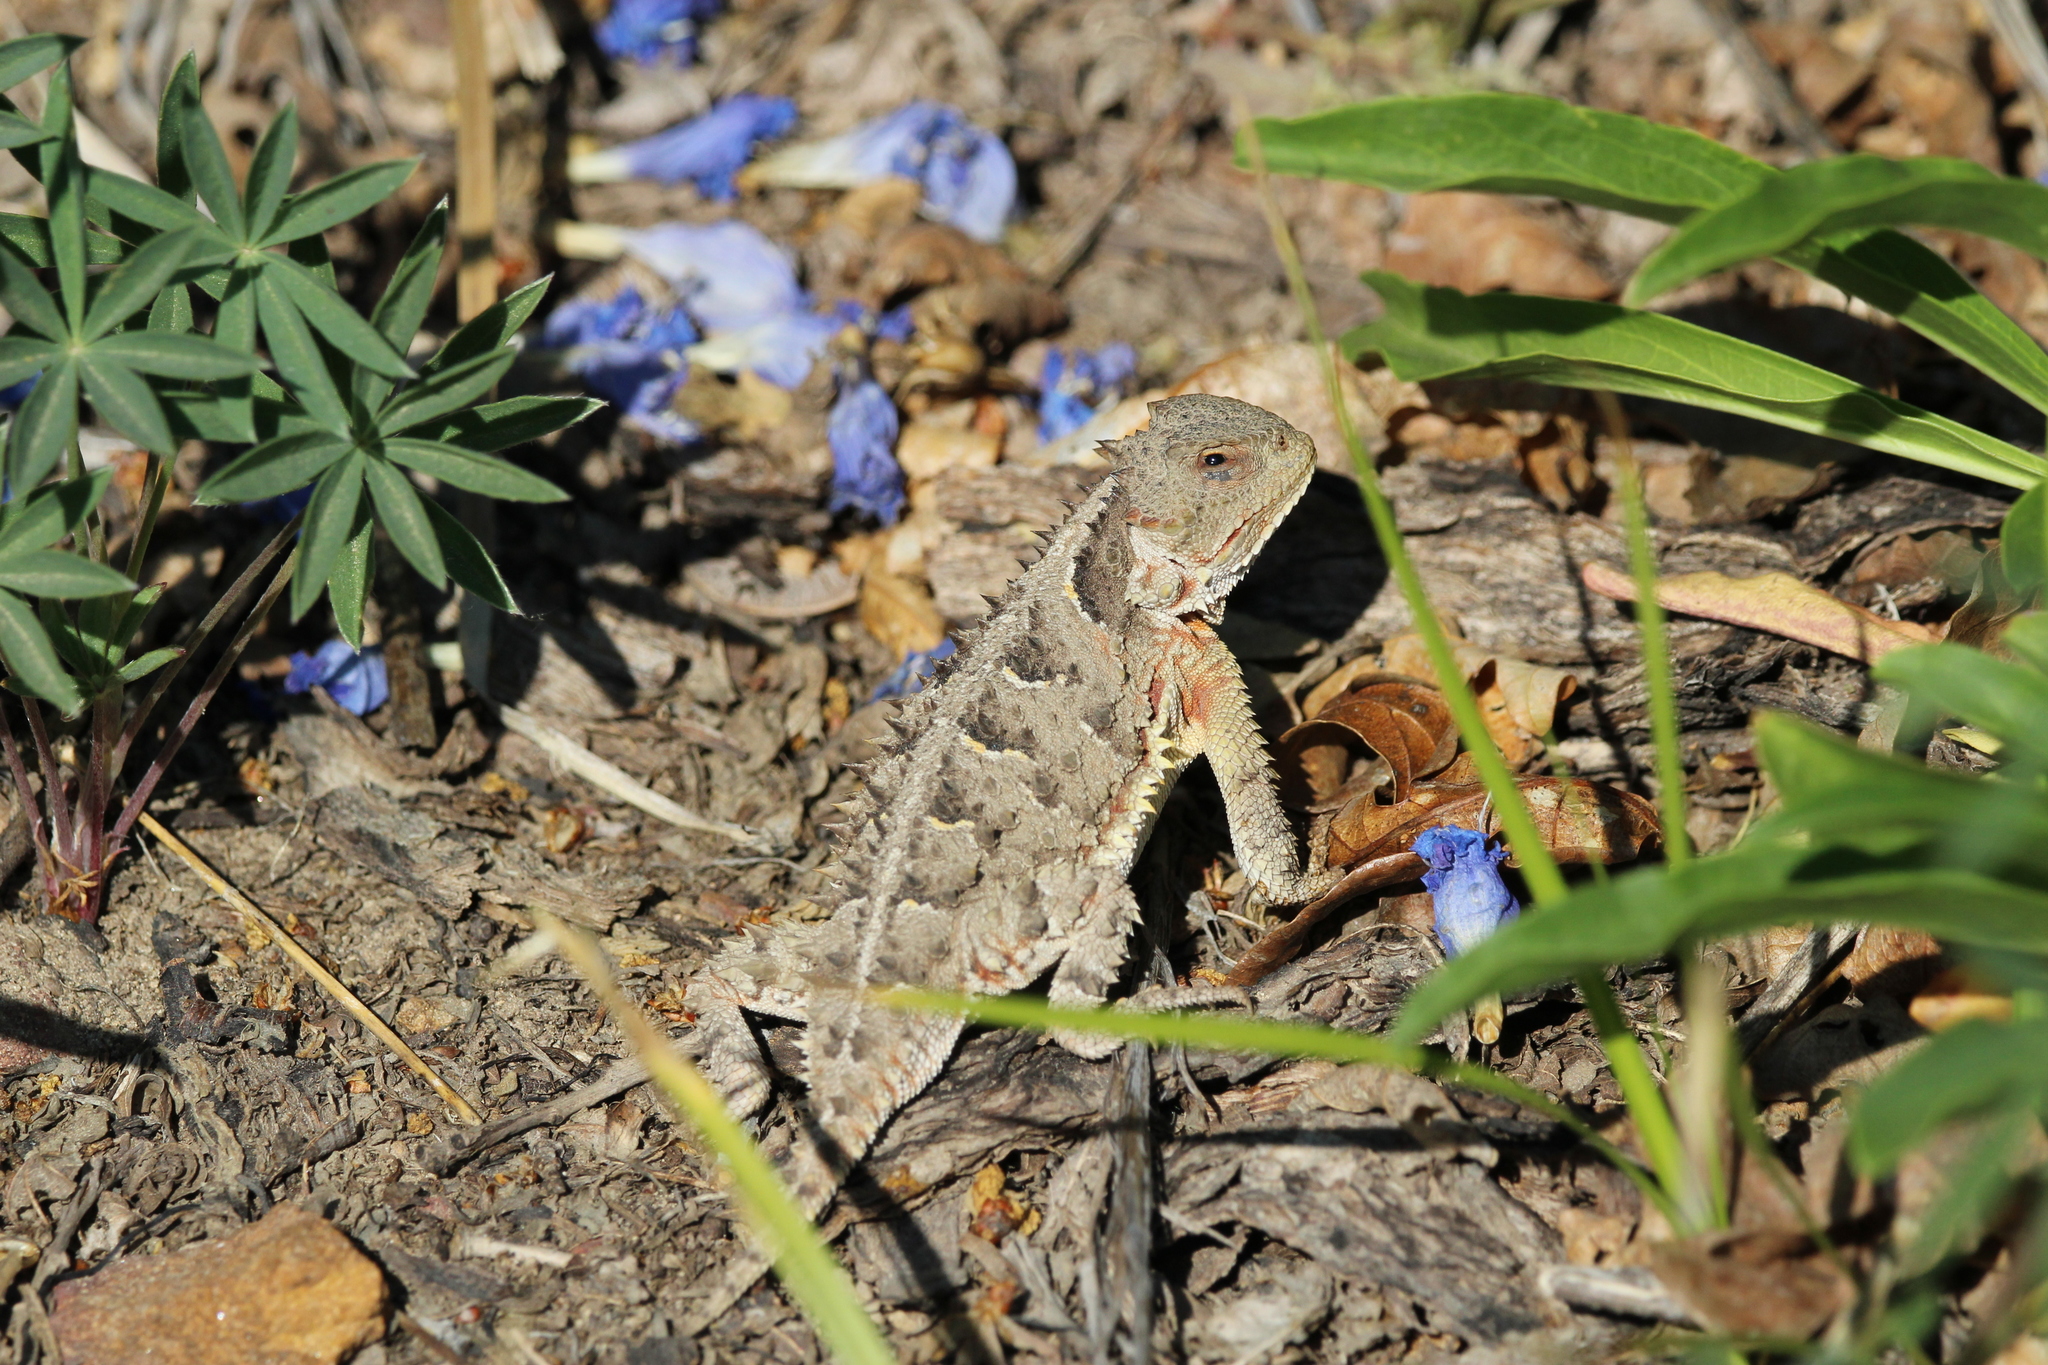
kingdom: Animalia
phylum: Chordata
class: Squamata
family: Phrynosomatidae
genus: Phrynosoma
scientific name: Phrynosoma hernandesi
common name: Greater short-horned lizard
